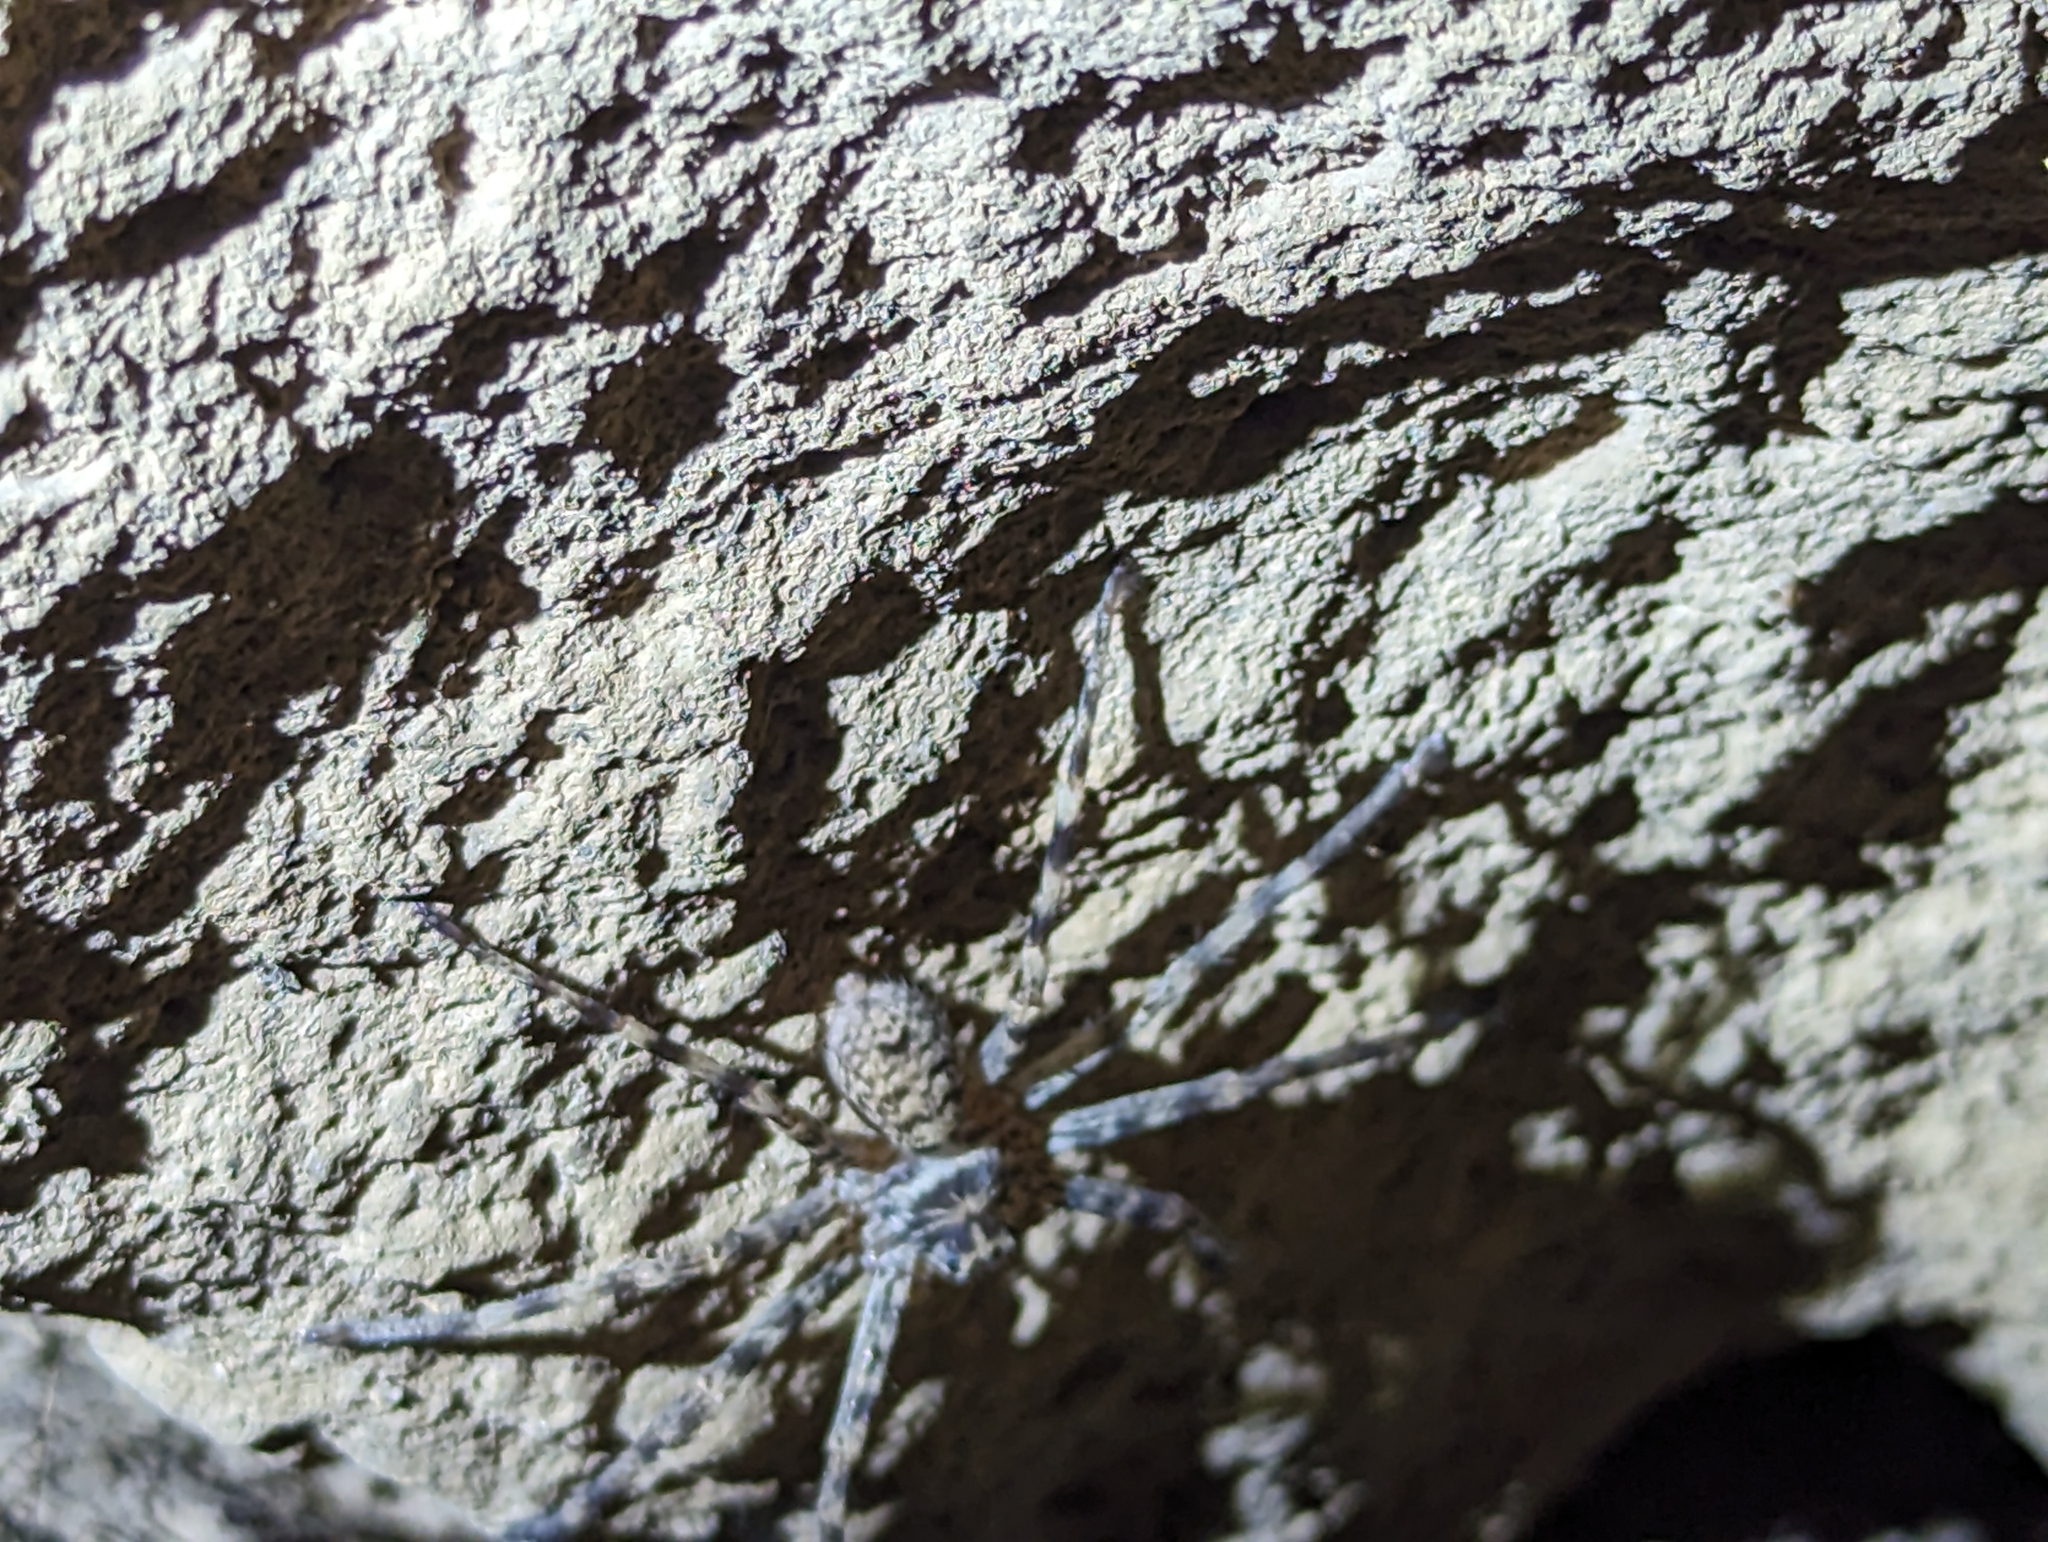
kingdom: Animalia
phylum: Arthropoda
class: Arachnida
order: Araneae
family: Sparassidae
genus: Yiinthi
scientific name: Yiinthi chillagoe
